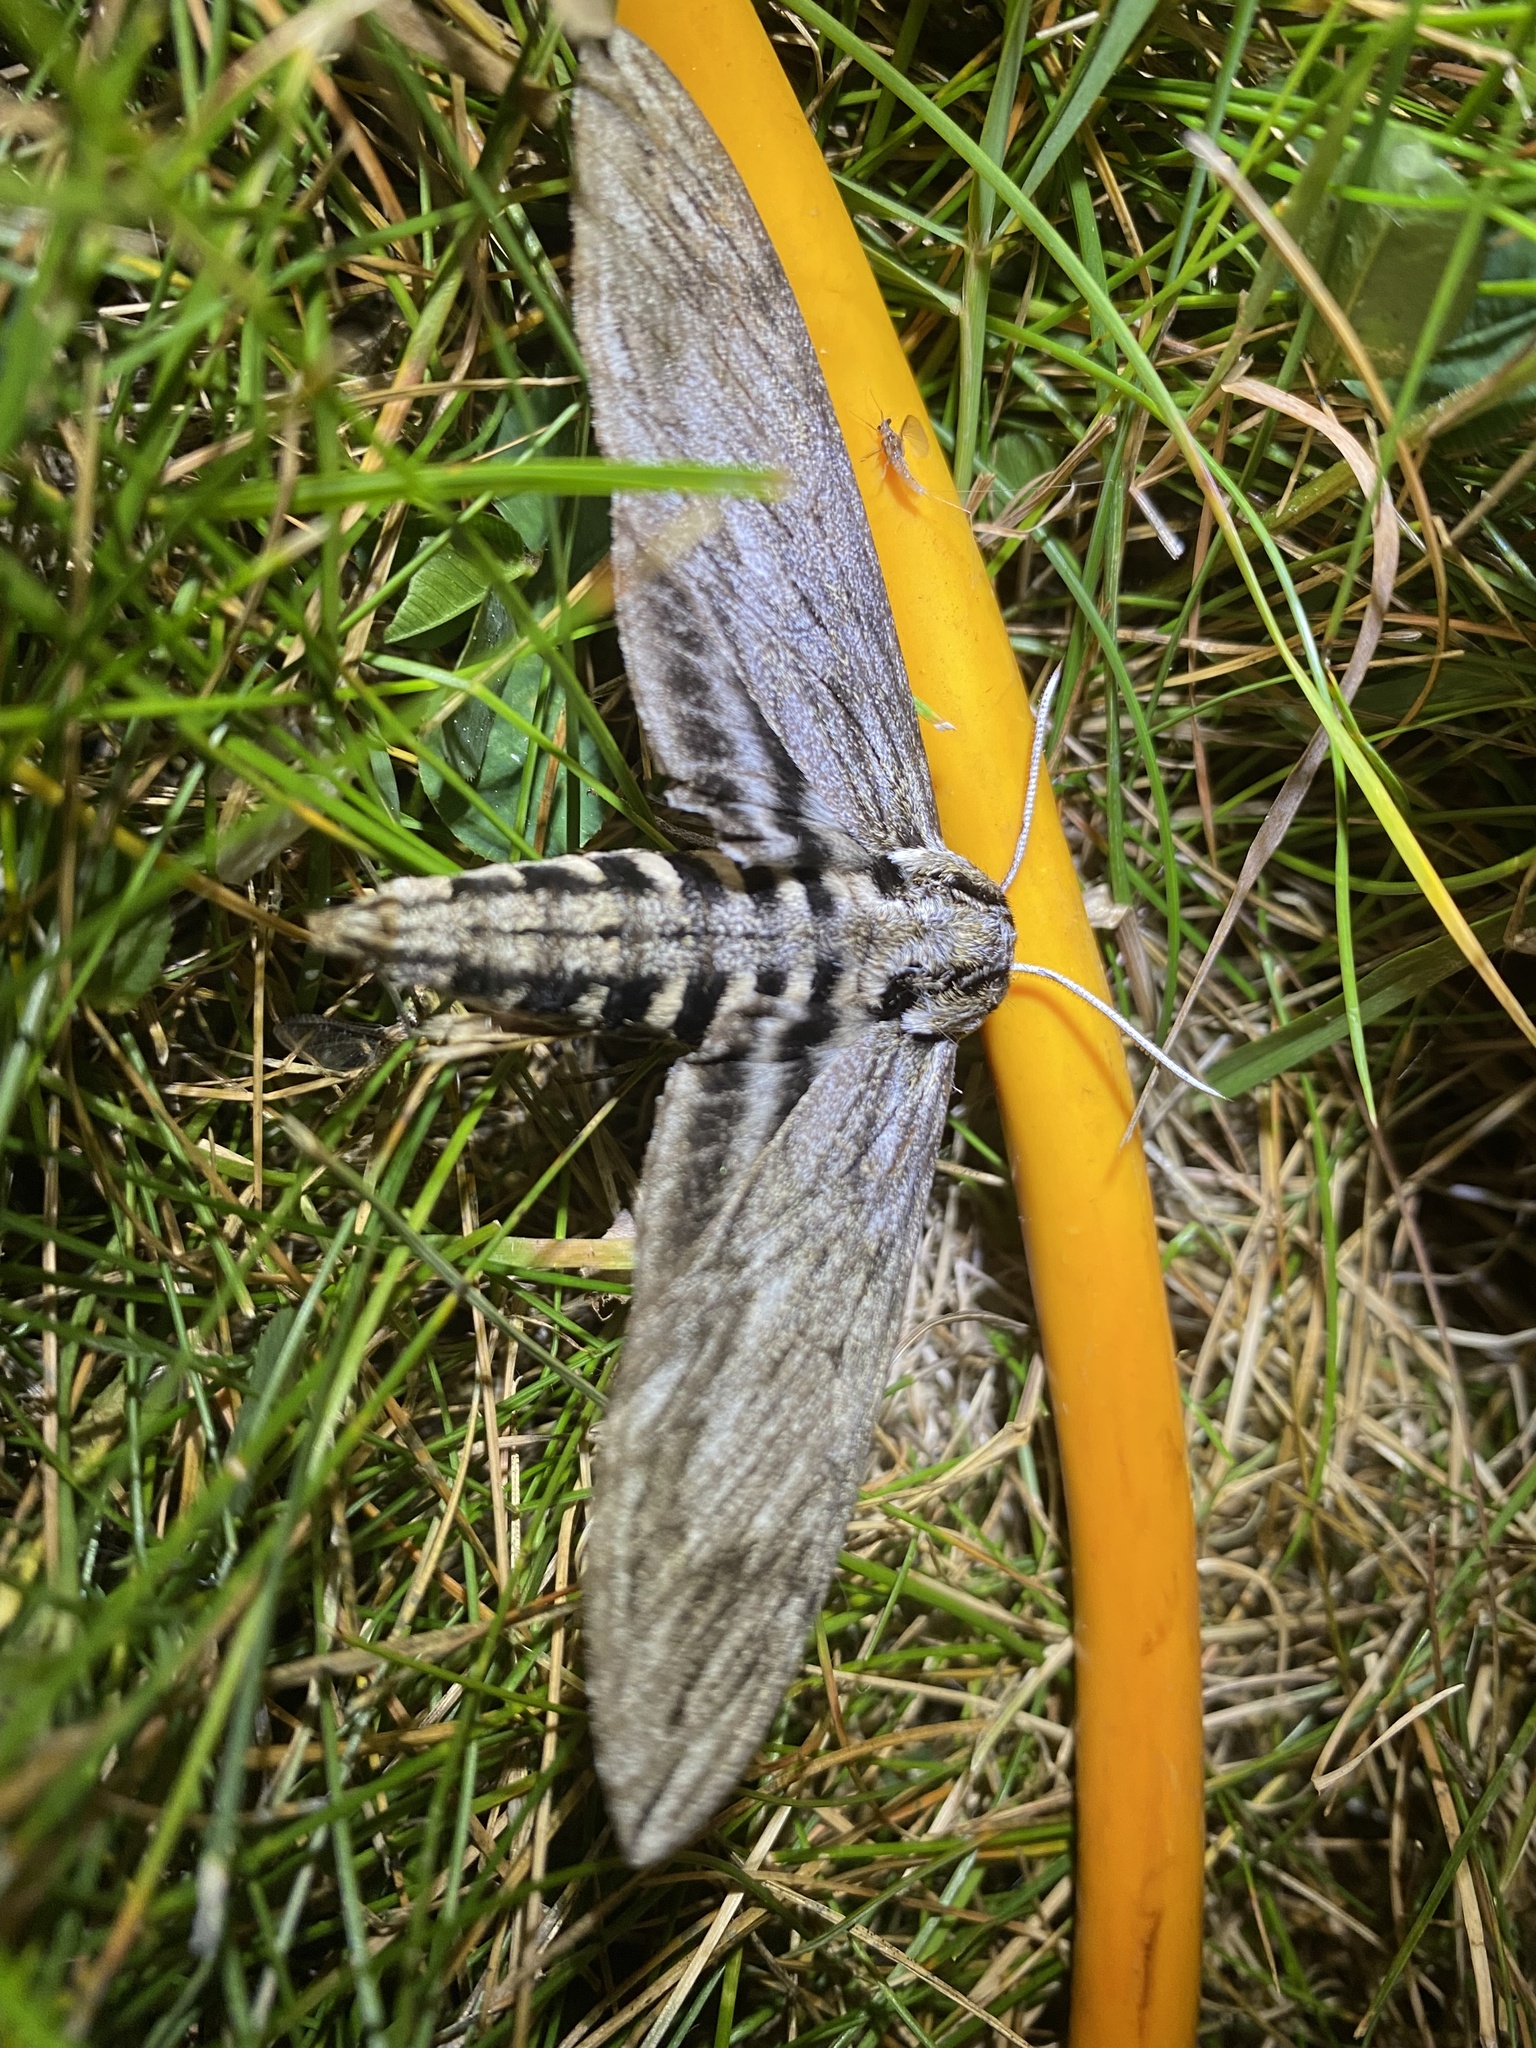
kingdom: Animalia
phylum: Arthropoda
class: Insecta
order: Lepidoptera
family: Sphingidae
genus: Sphinx
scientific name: Sphinx canadensis
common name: Canadian sphinx
